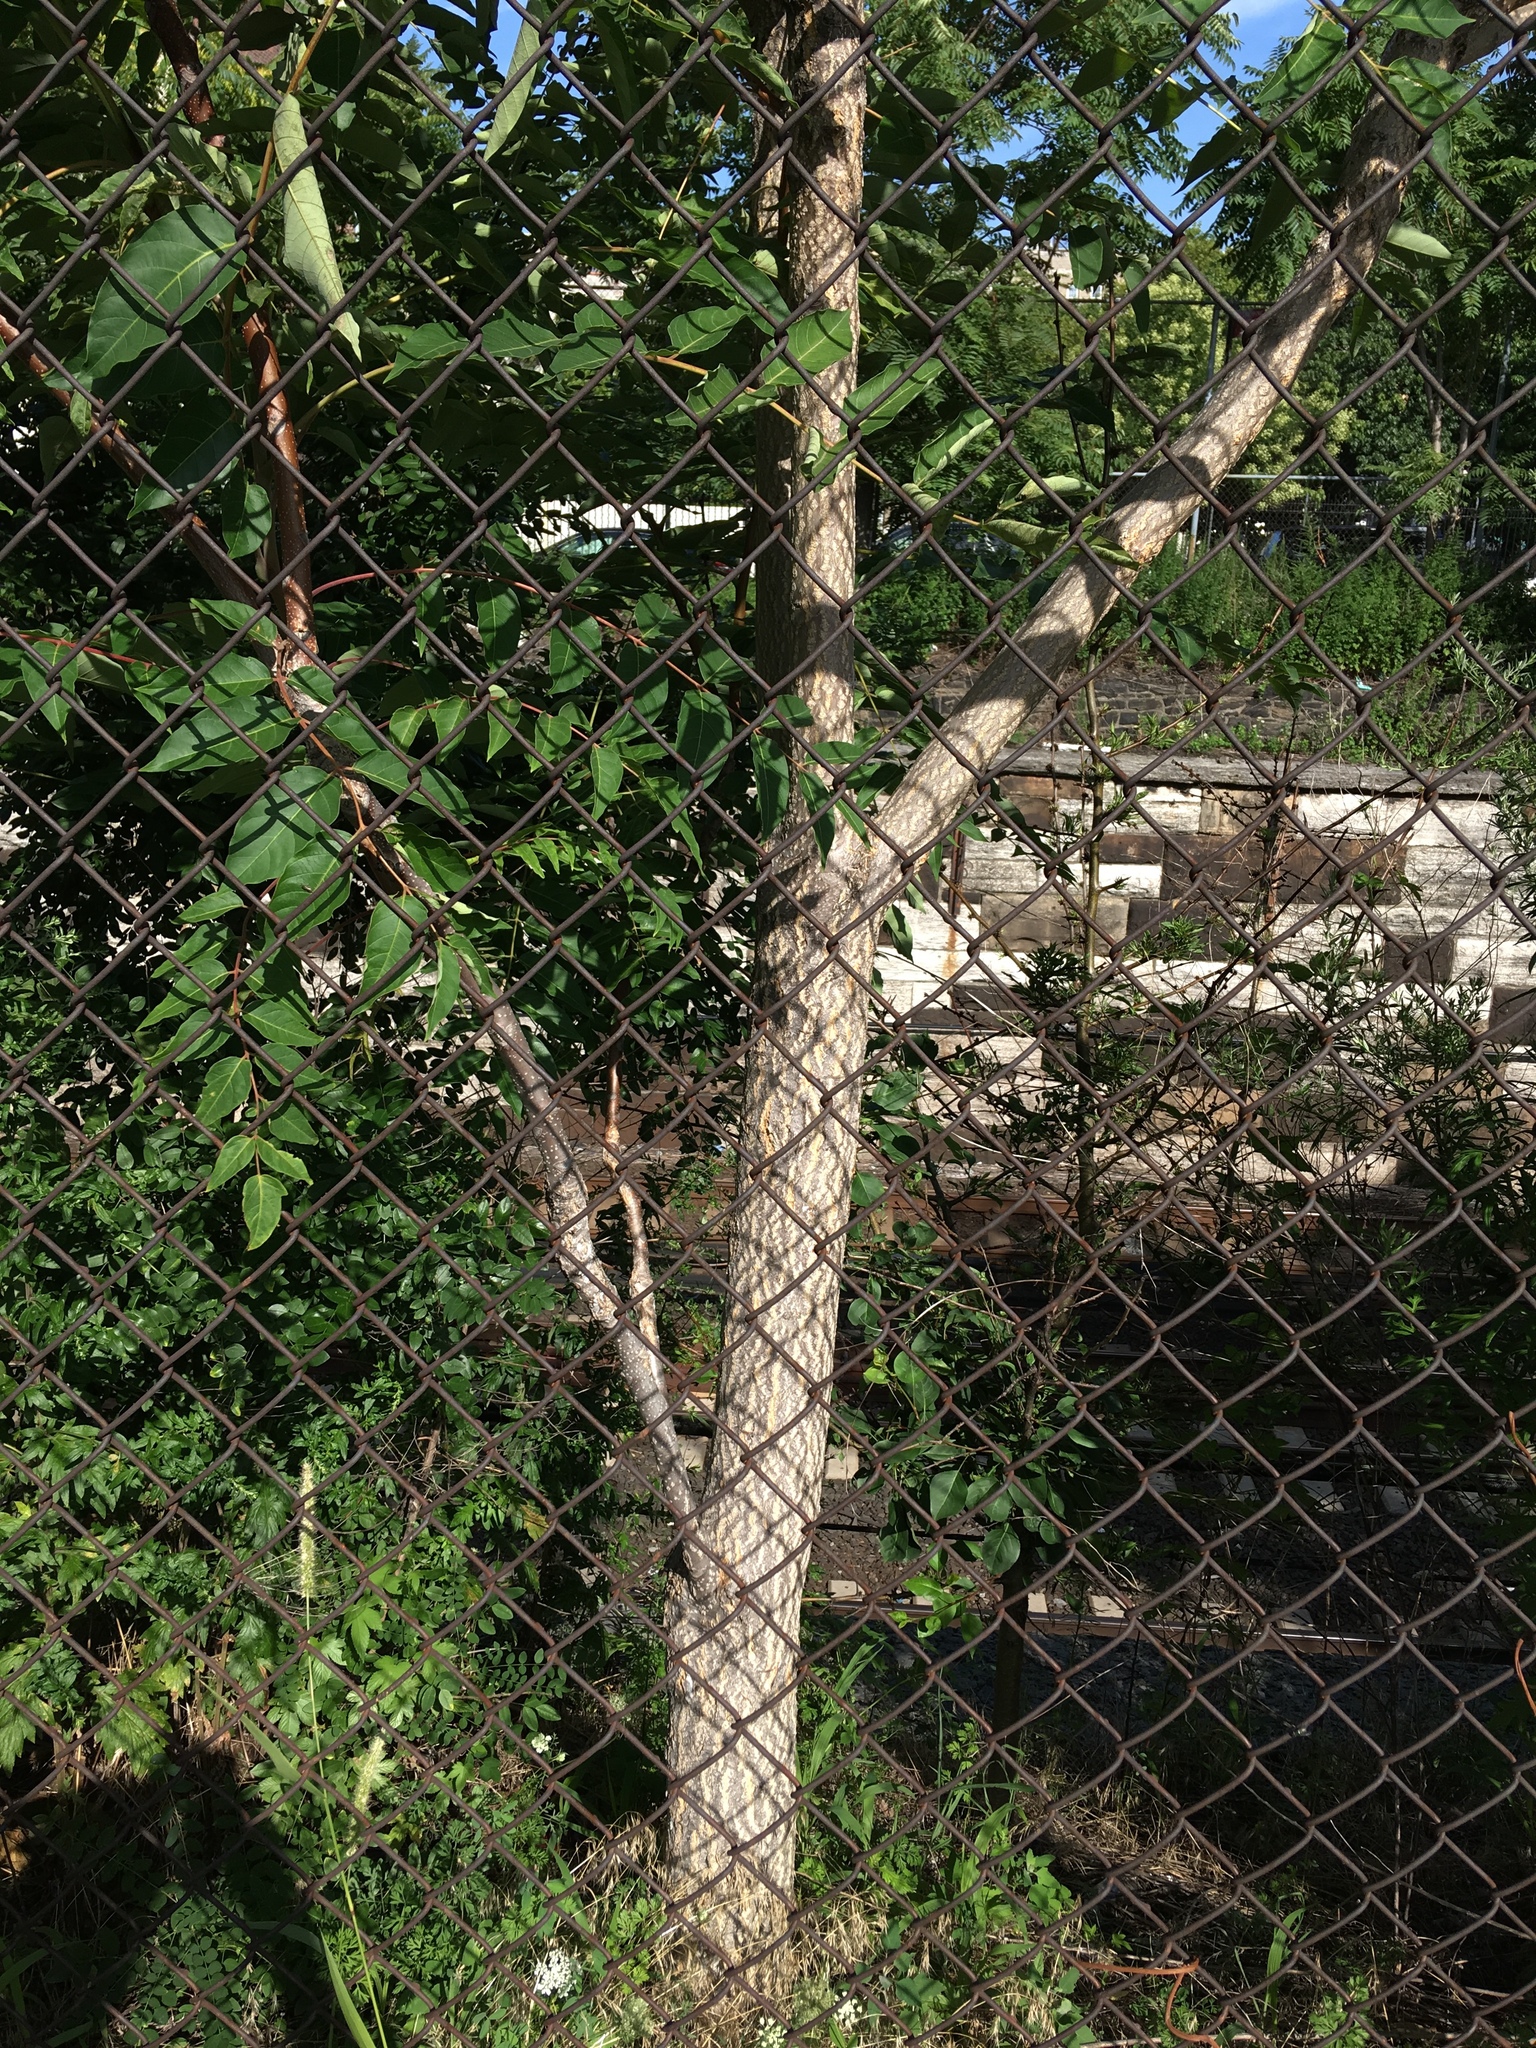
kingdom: Plantae
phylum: Tracheophyta
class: Magnoliopsida
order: Sapindales
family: Simaroubaceae
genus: Ailanthus
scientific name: Ailanthus altissima
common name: Tree-of-heaven
